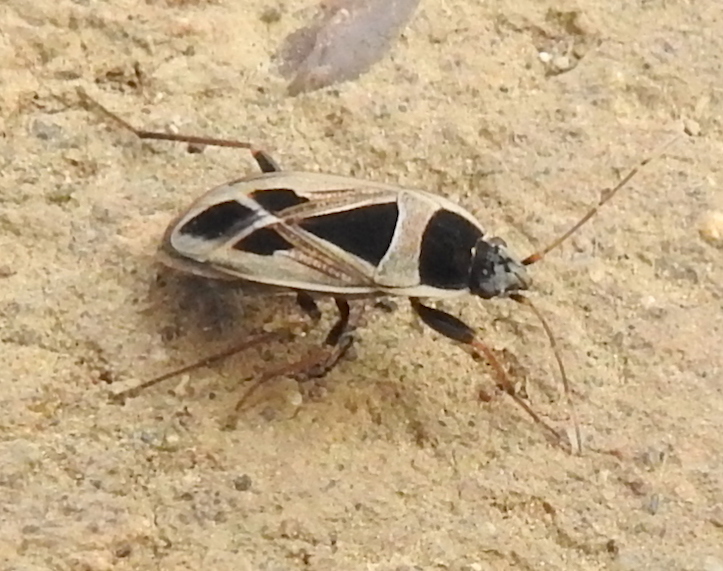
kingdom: Animalia
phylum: Arthropoda
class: Insecta
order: Hemiptera
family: Rhyparochromidae
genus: Xanthochilus
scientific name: Xanthochilus saturnius
